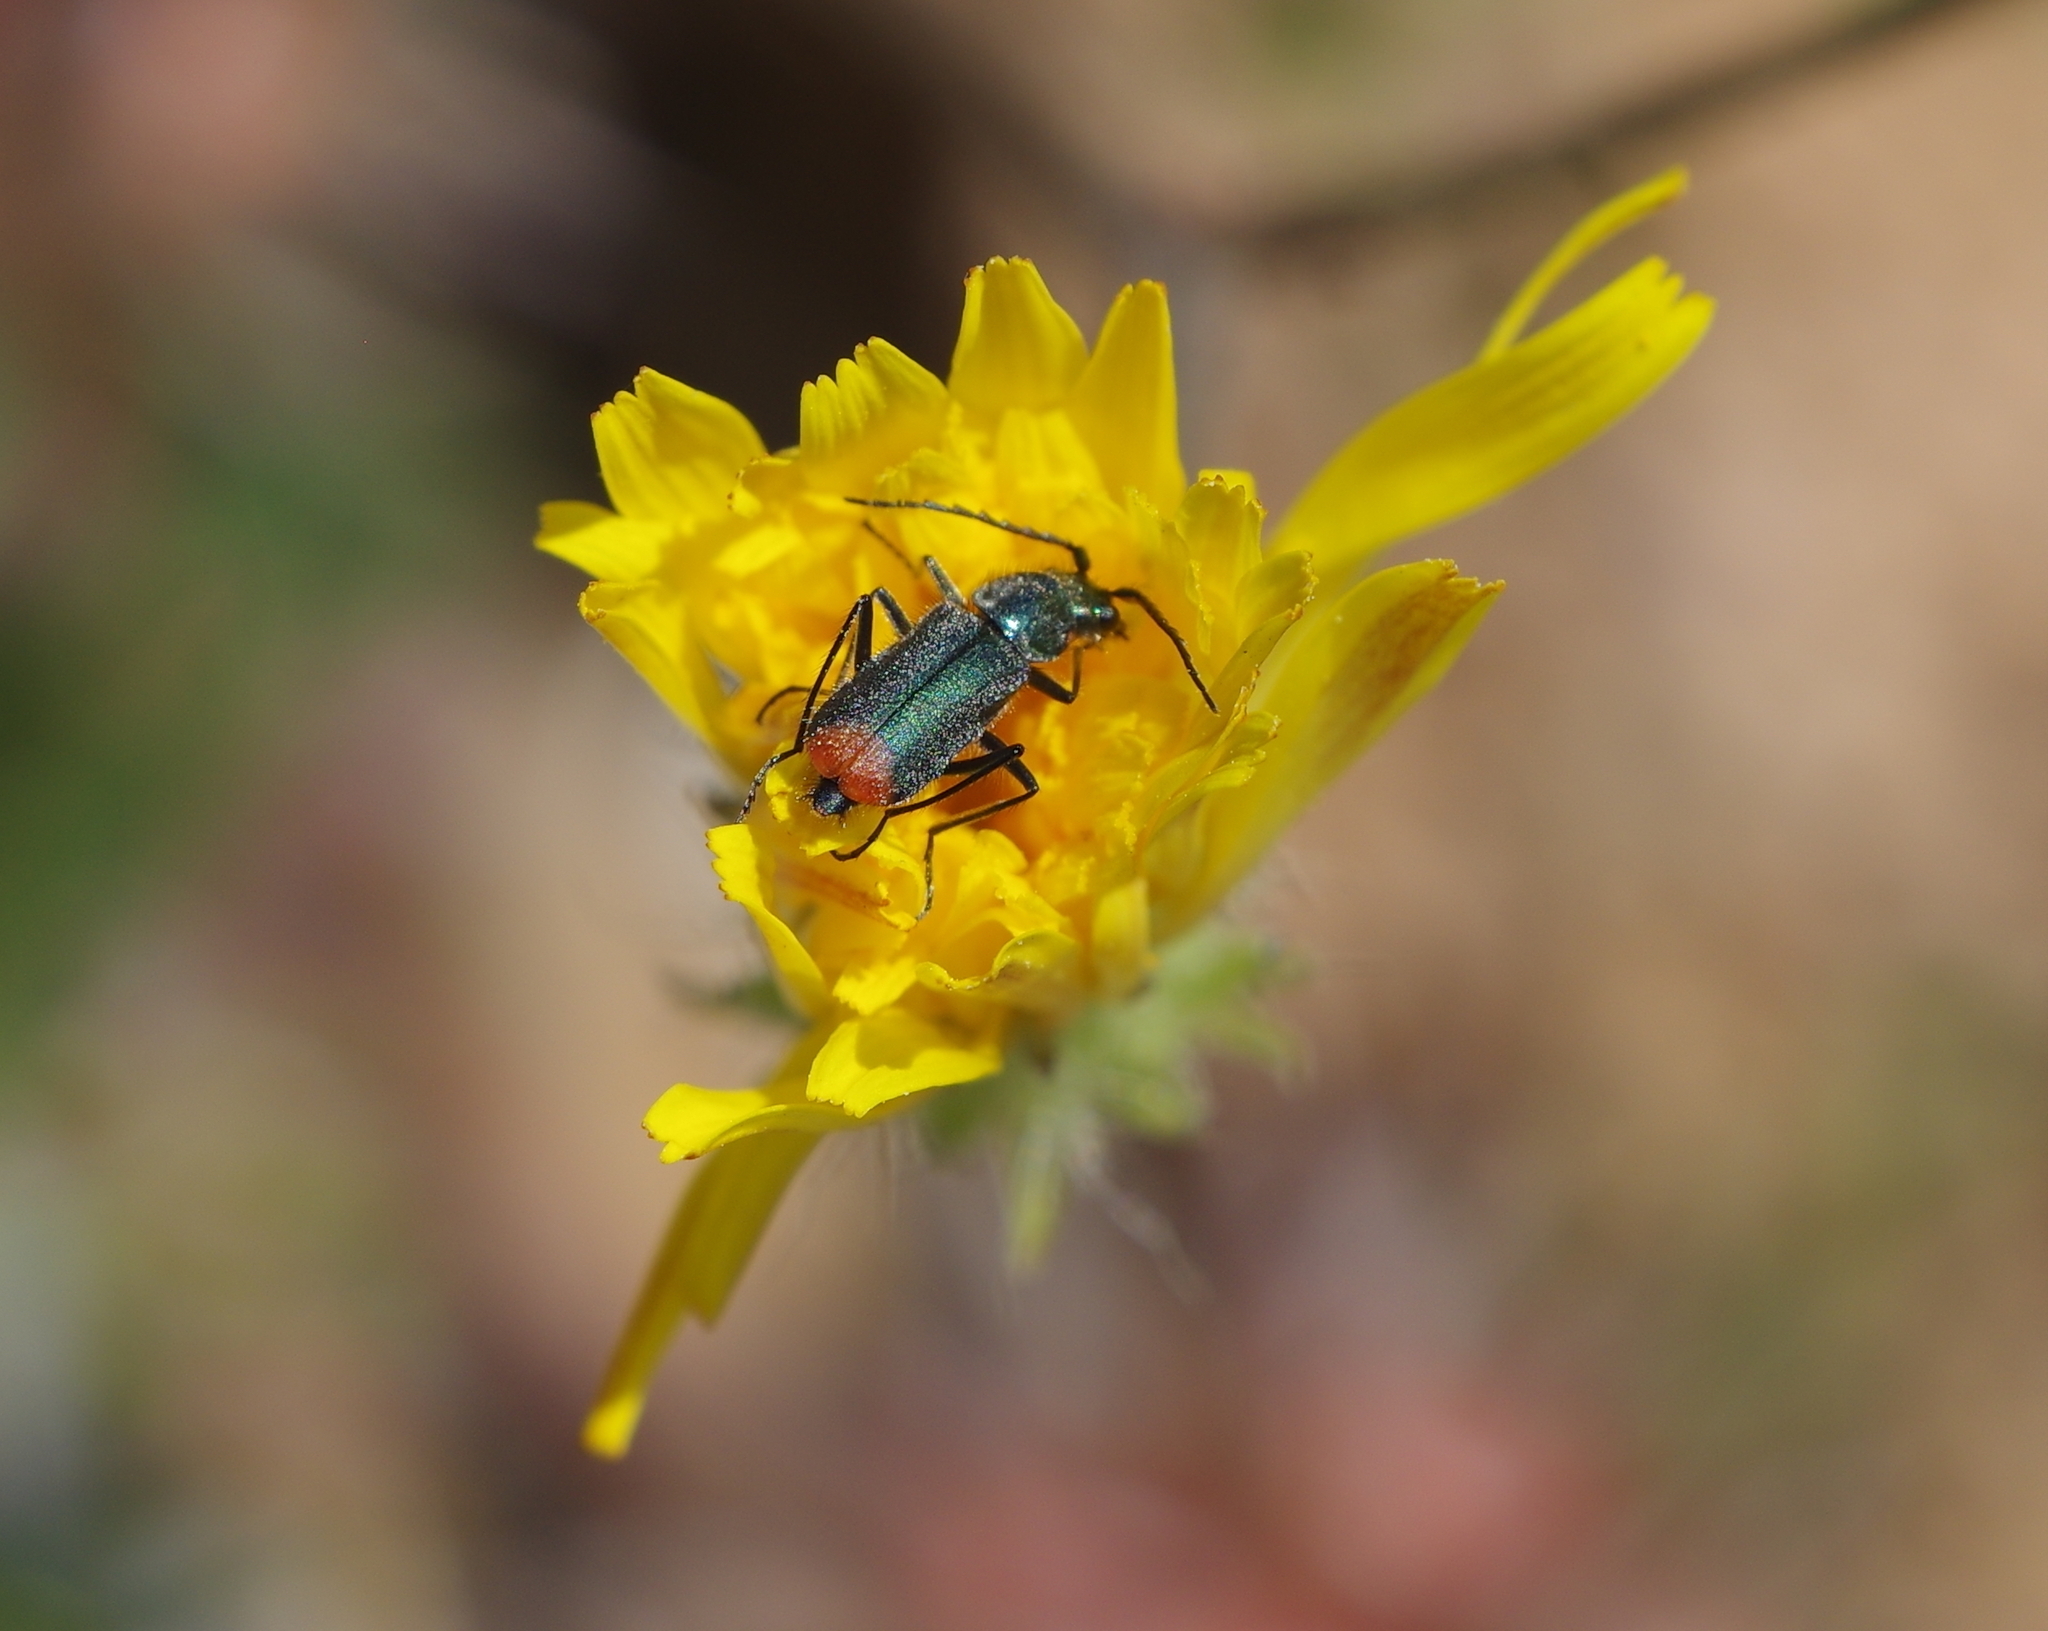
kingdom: Animalia
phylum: Arthropoda
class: Insecta
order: Coleoptera
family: Malachiidae
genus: Clanoptilus
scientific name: Clanoptilus assimilis
